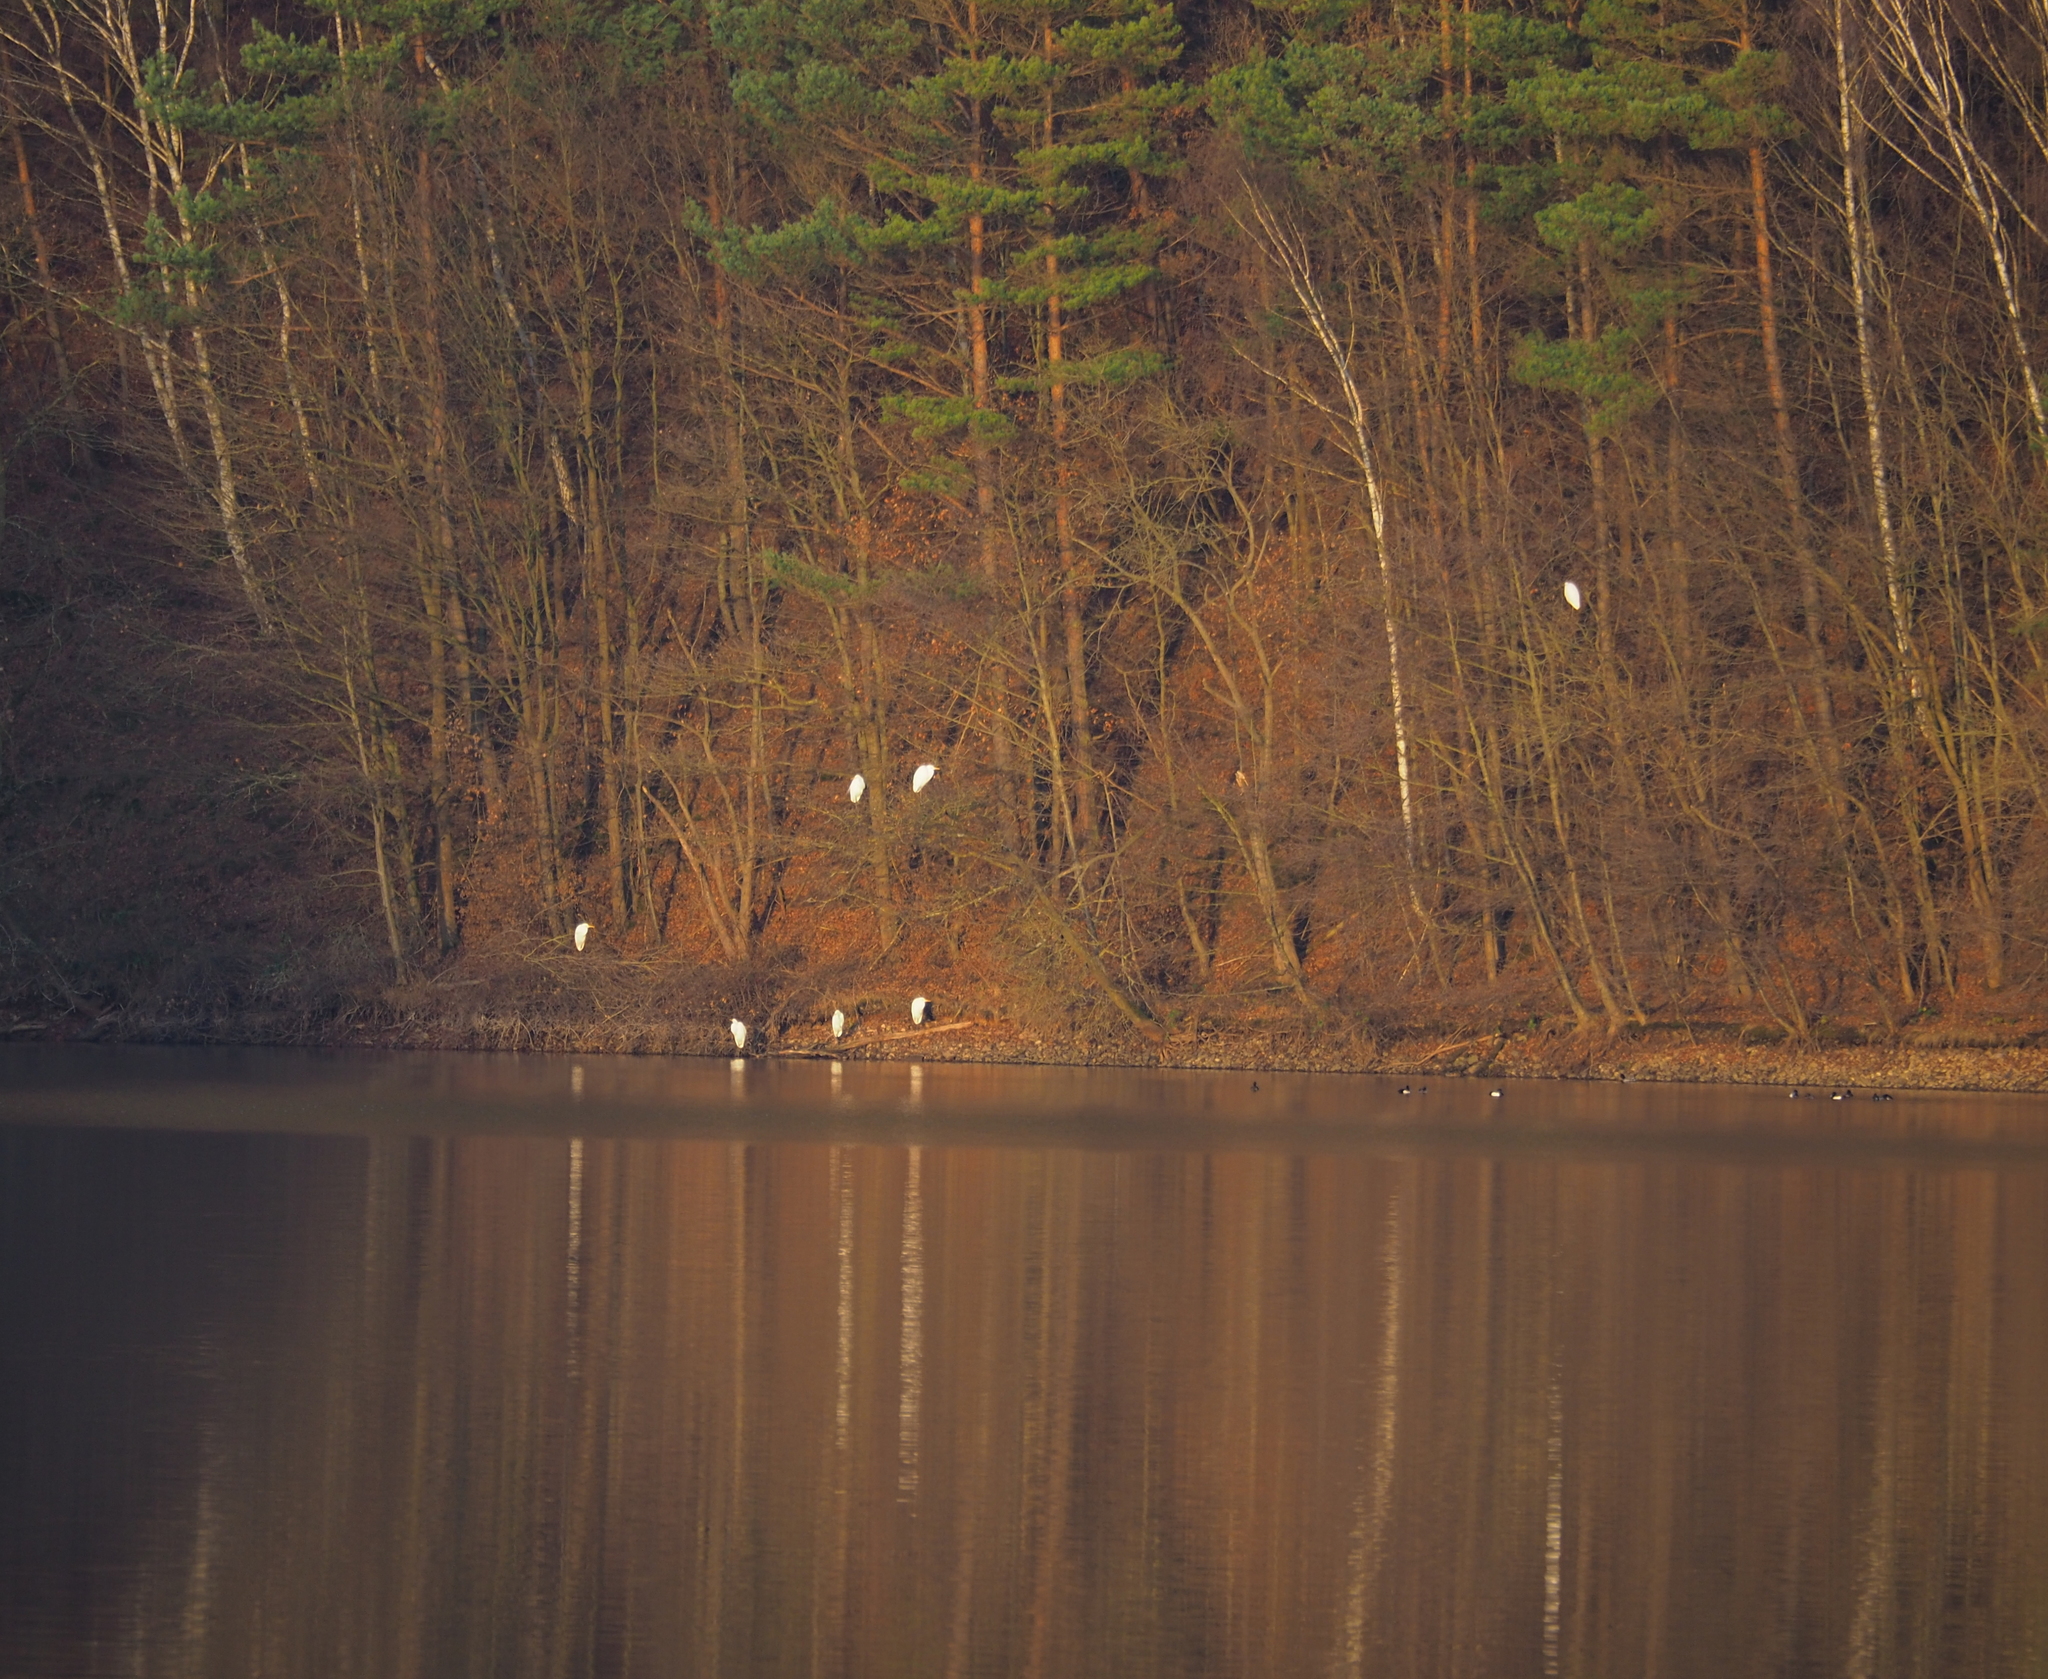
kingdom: Animalia
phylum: Chordata
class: Aves
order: Pelecaniformes
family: Ardeidae
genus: Ardea
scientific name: Ardea alba
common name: Great egret
